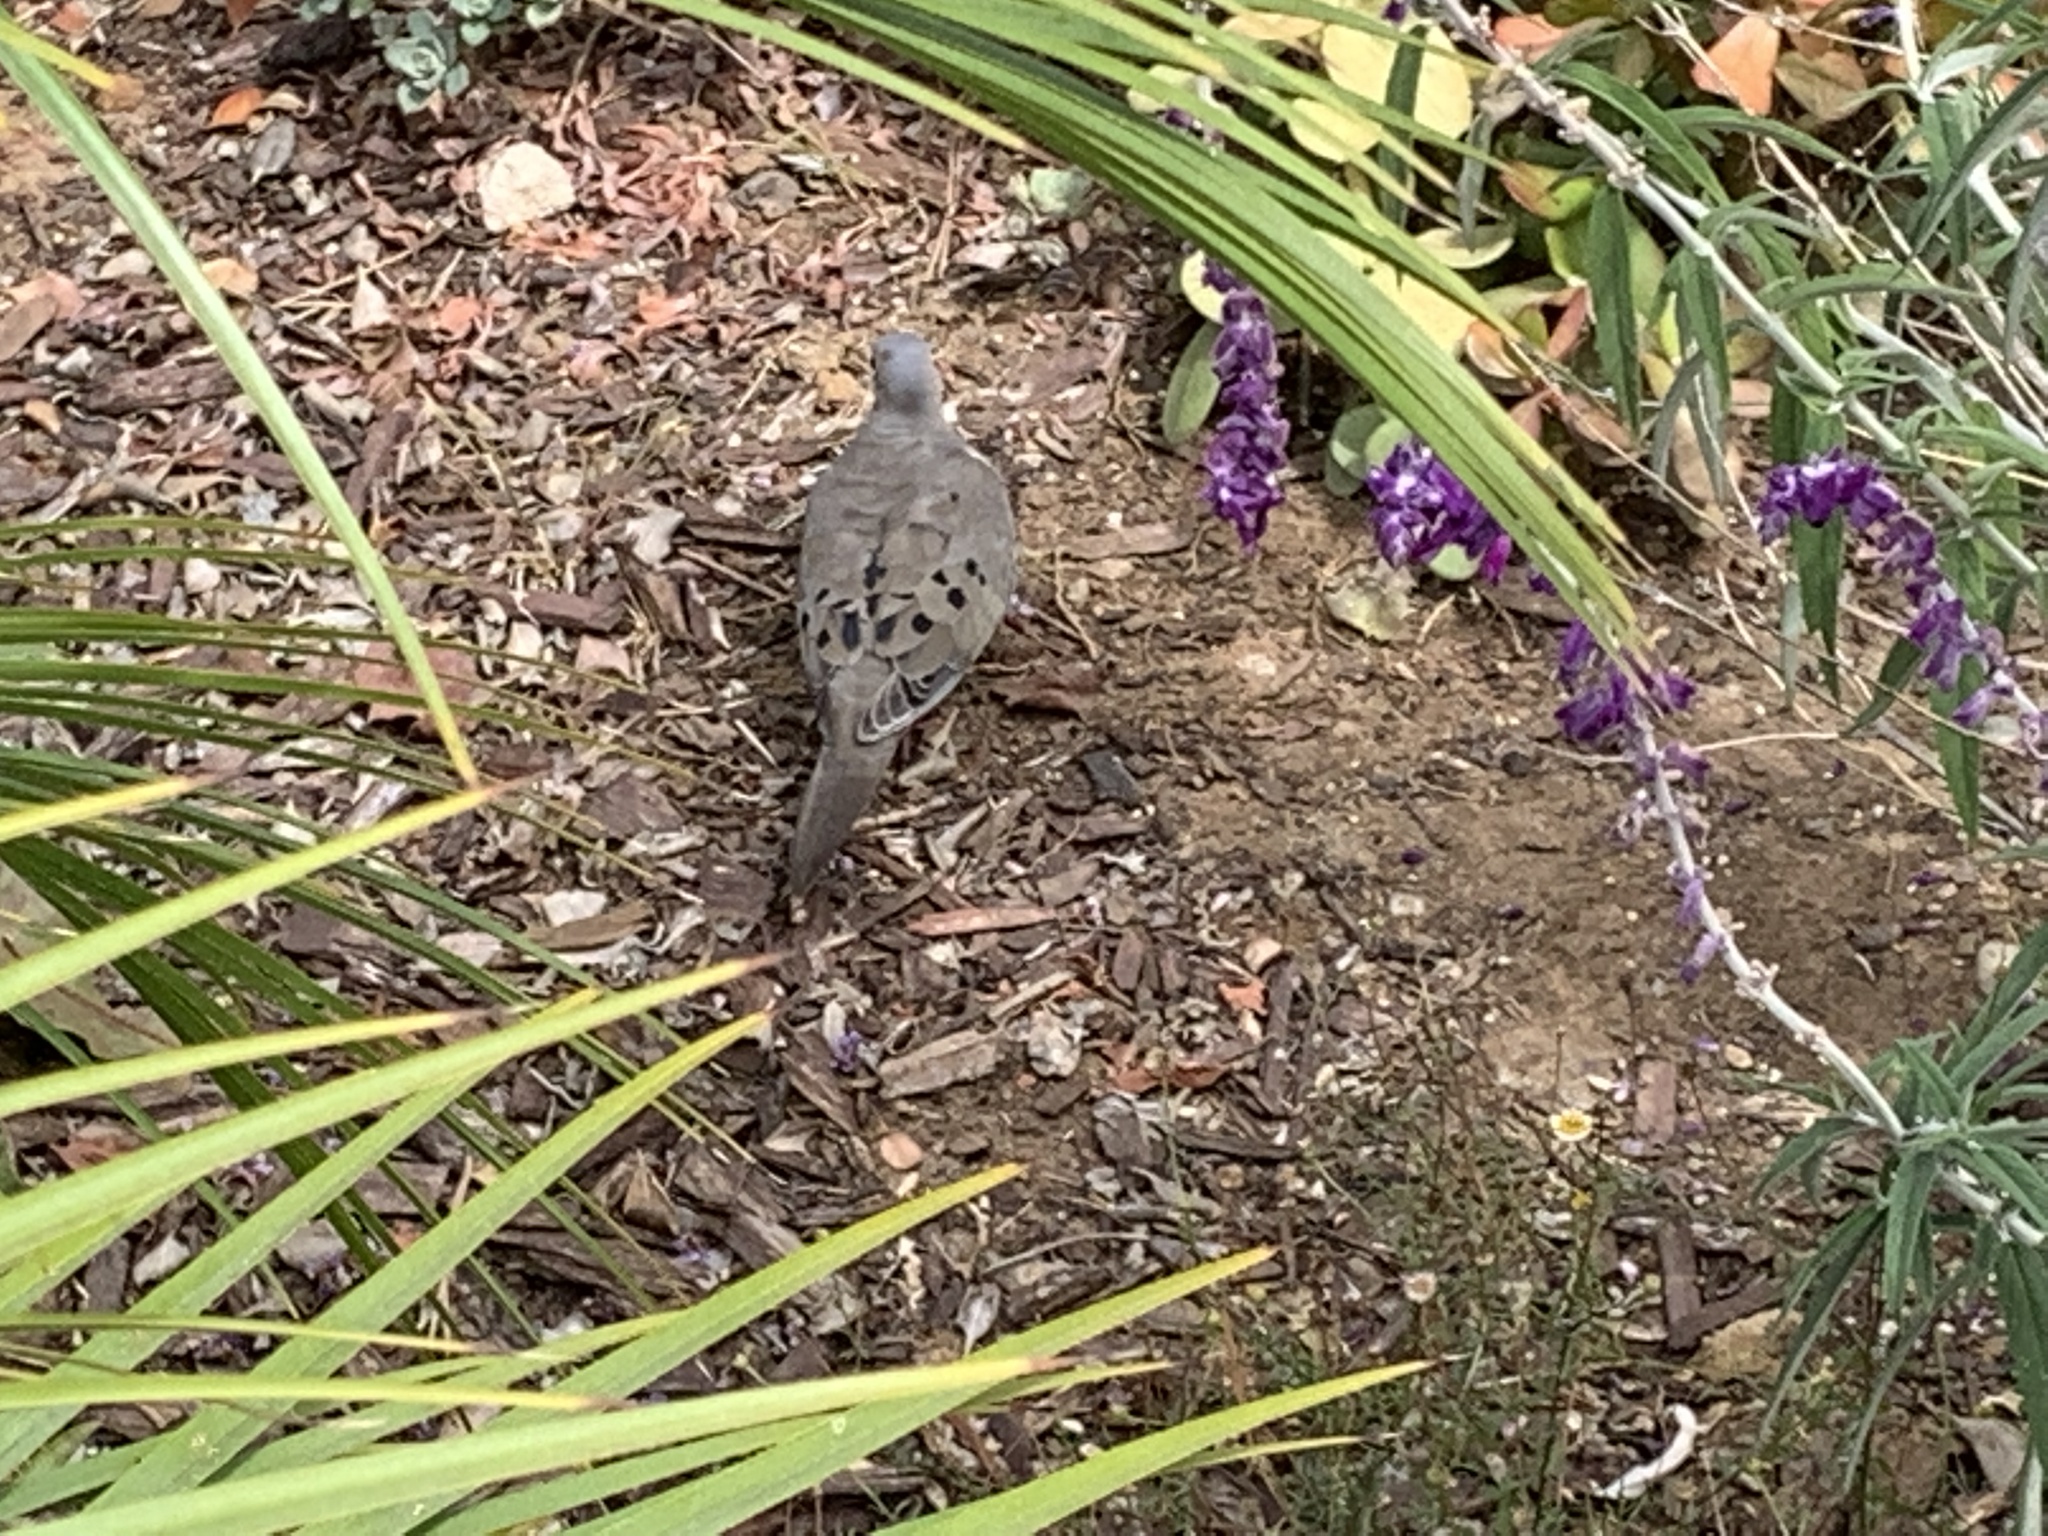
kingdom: Animalia
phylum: Chordata
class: Aves
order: Columbiformes
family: Columbidae
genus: Zenaida
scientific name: Zenaida macroura
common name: Mourning dove
